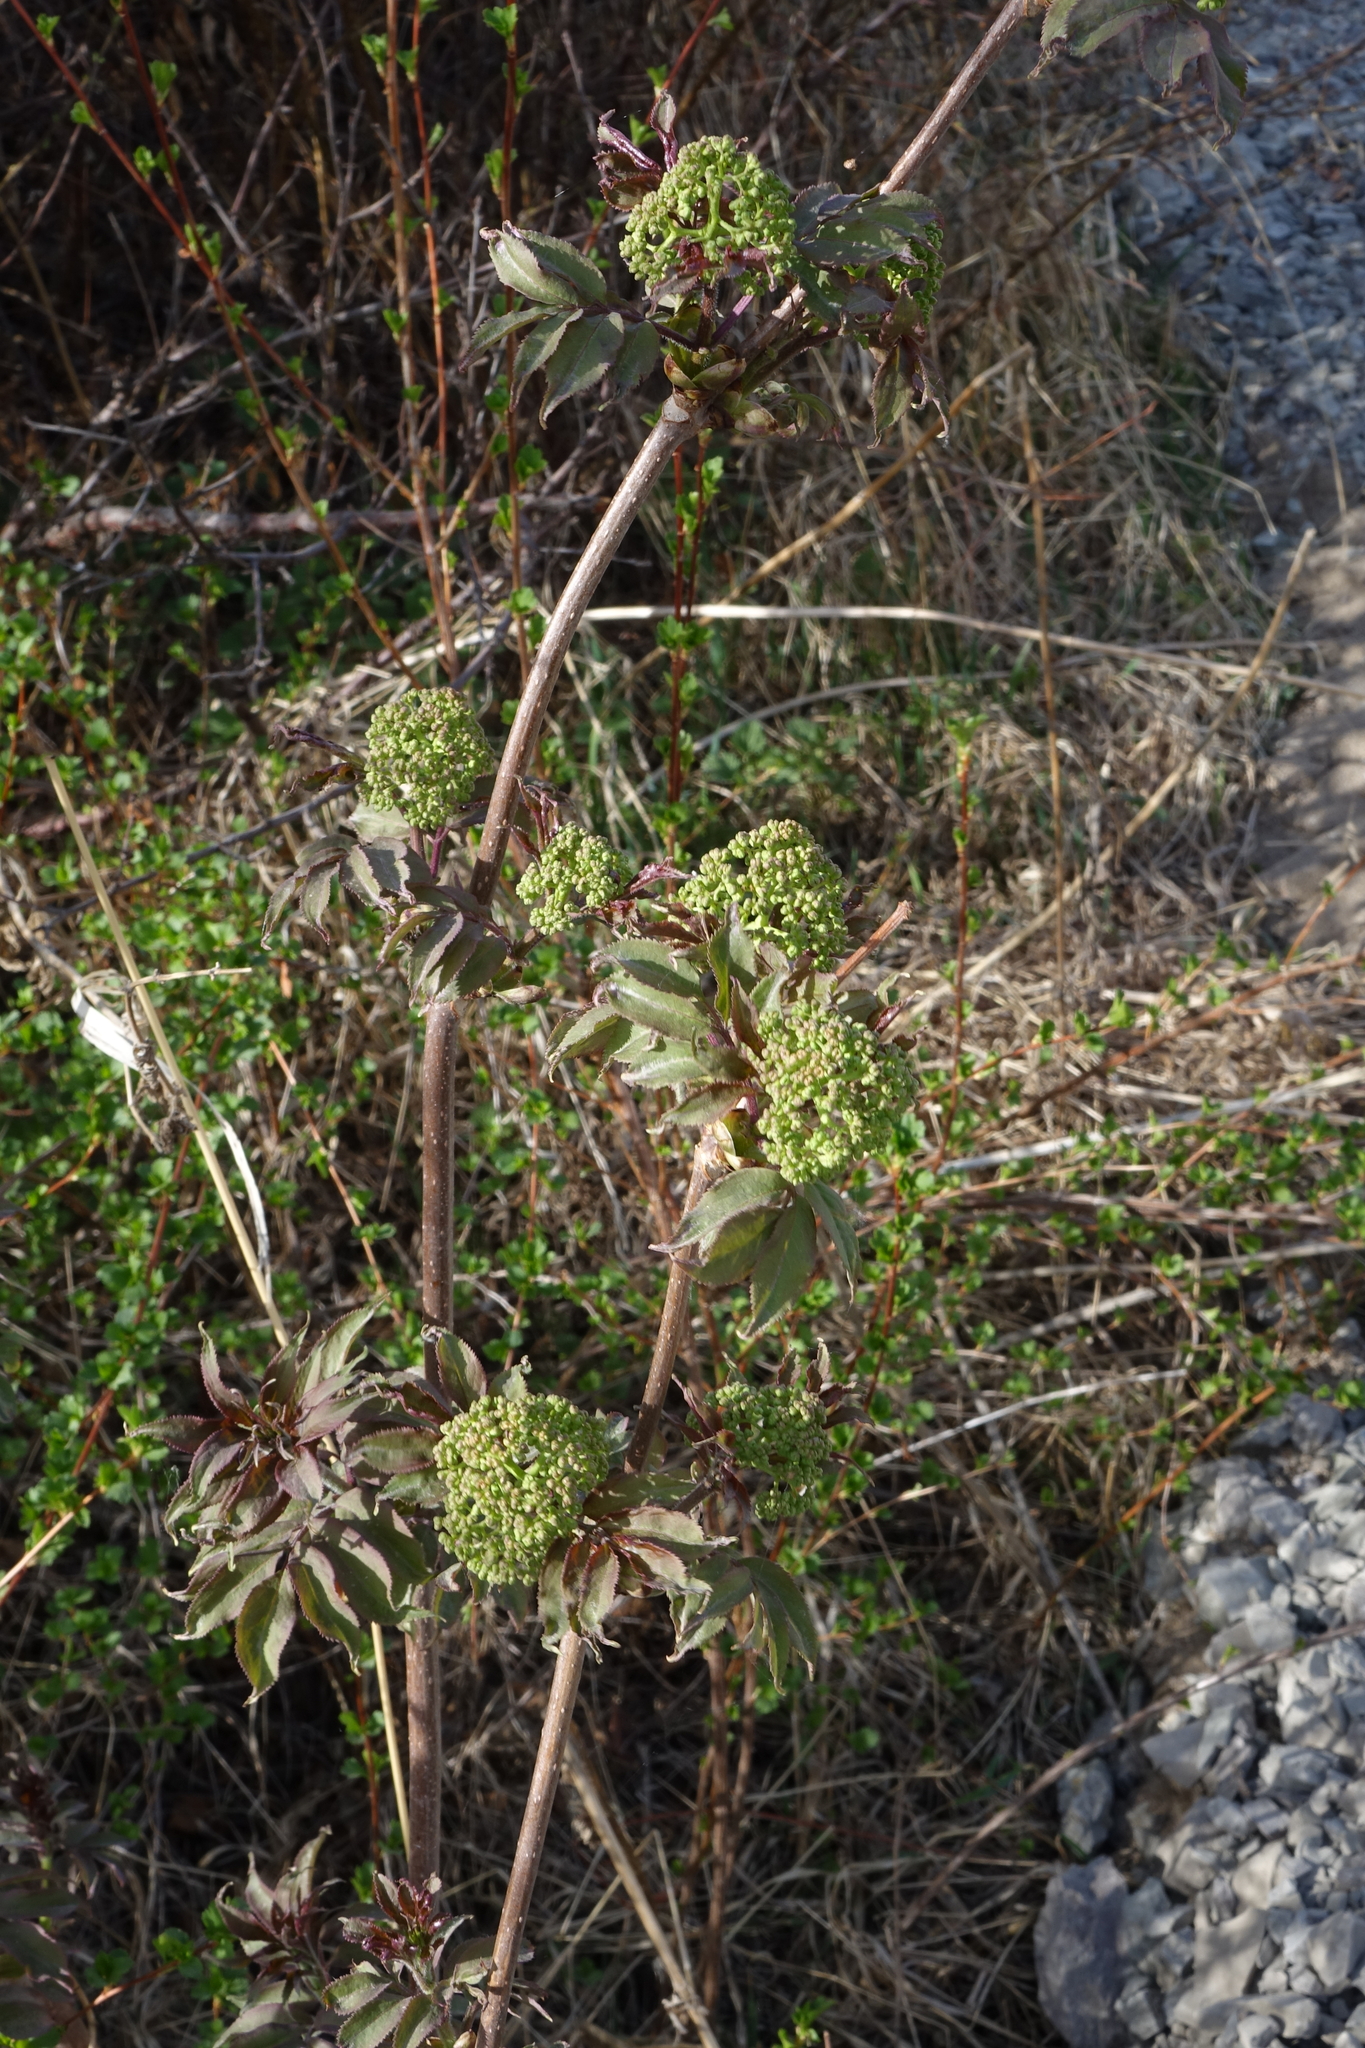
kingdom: Plantae
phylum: Tracheophyta
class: Magnoliopsida
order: Dipsacales
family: Viburnaceae
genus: Sambucus
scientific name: Sambucus sibirica
